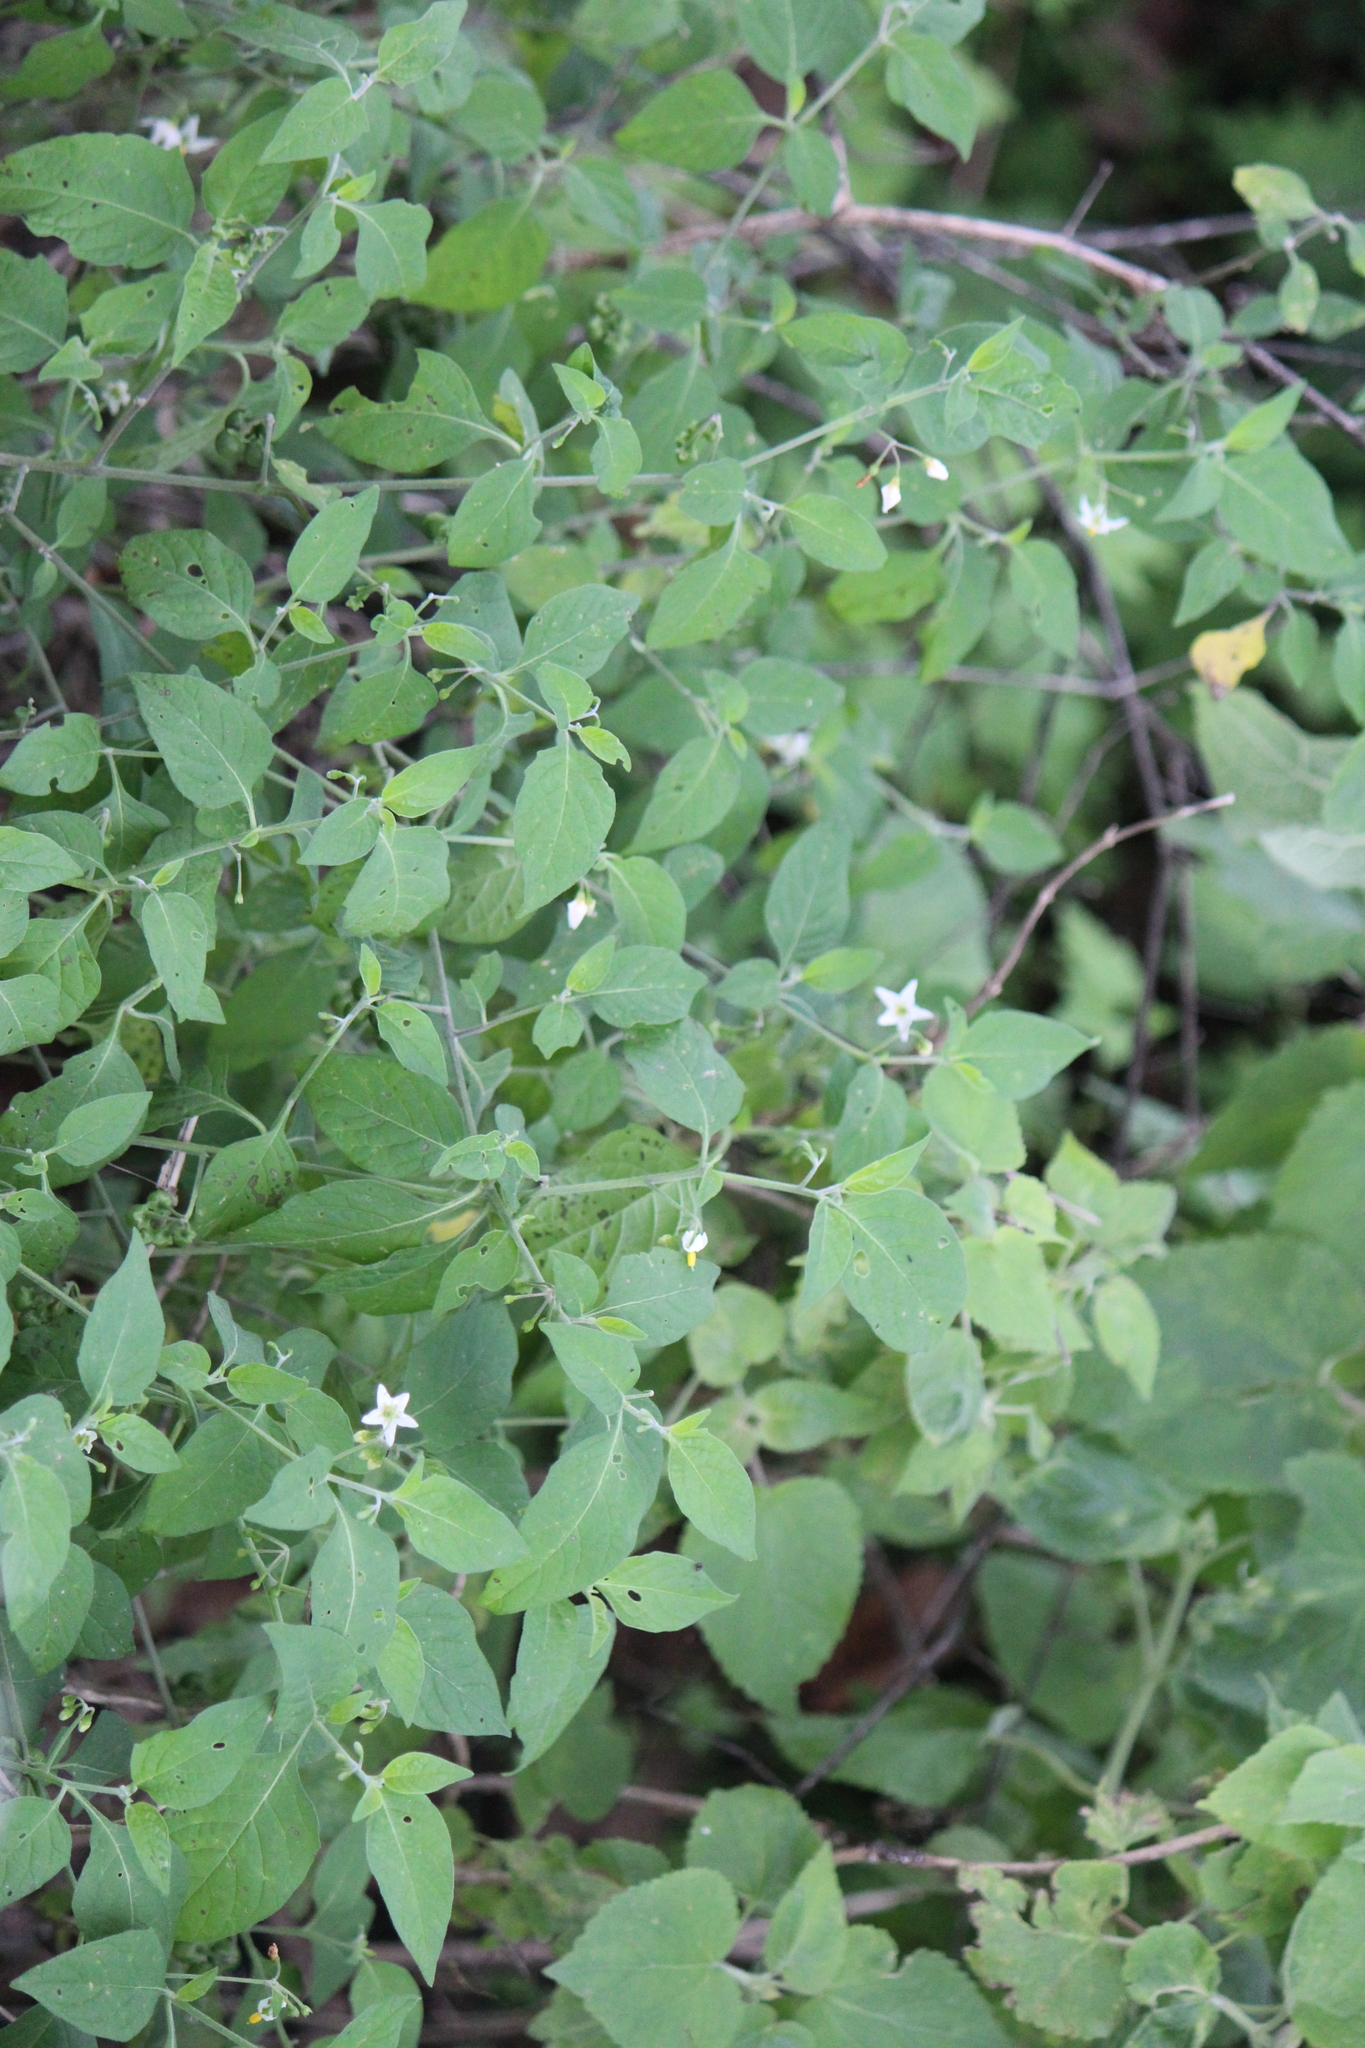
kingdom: Plantae
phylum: Tracheophyta
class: Magnoliopsida
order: Solanales
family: Solanaceae
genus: Solanum
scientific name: Solanum nigrescens
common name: Divine nightshade
